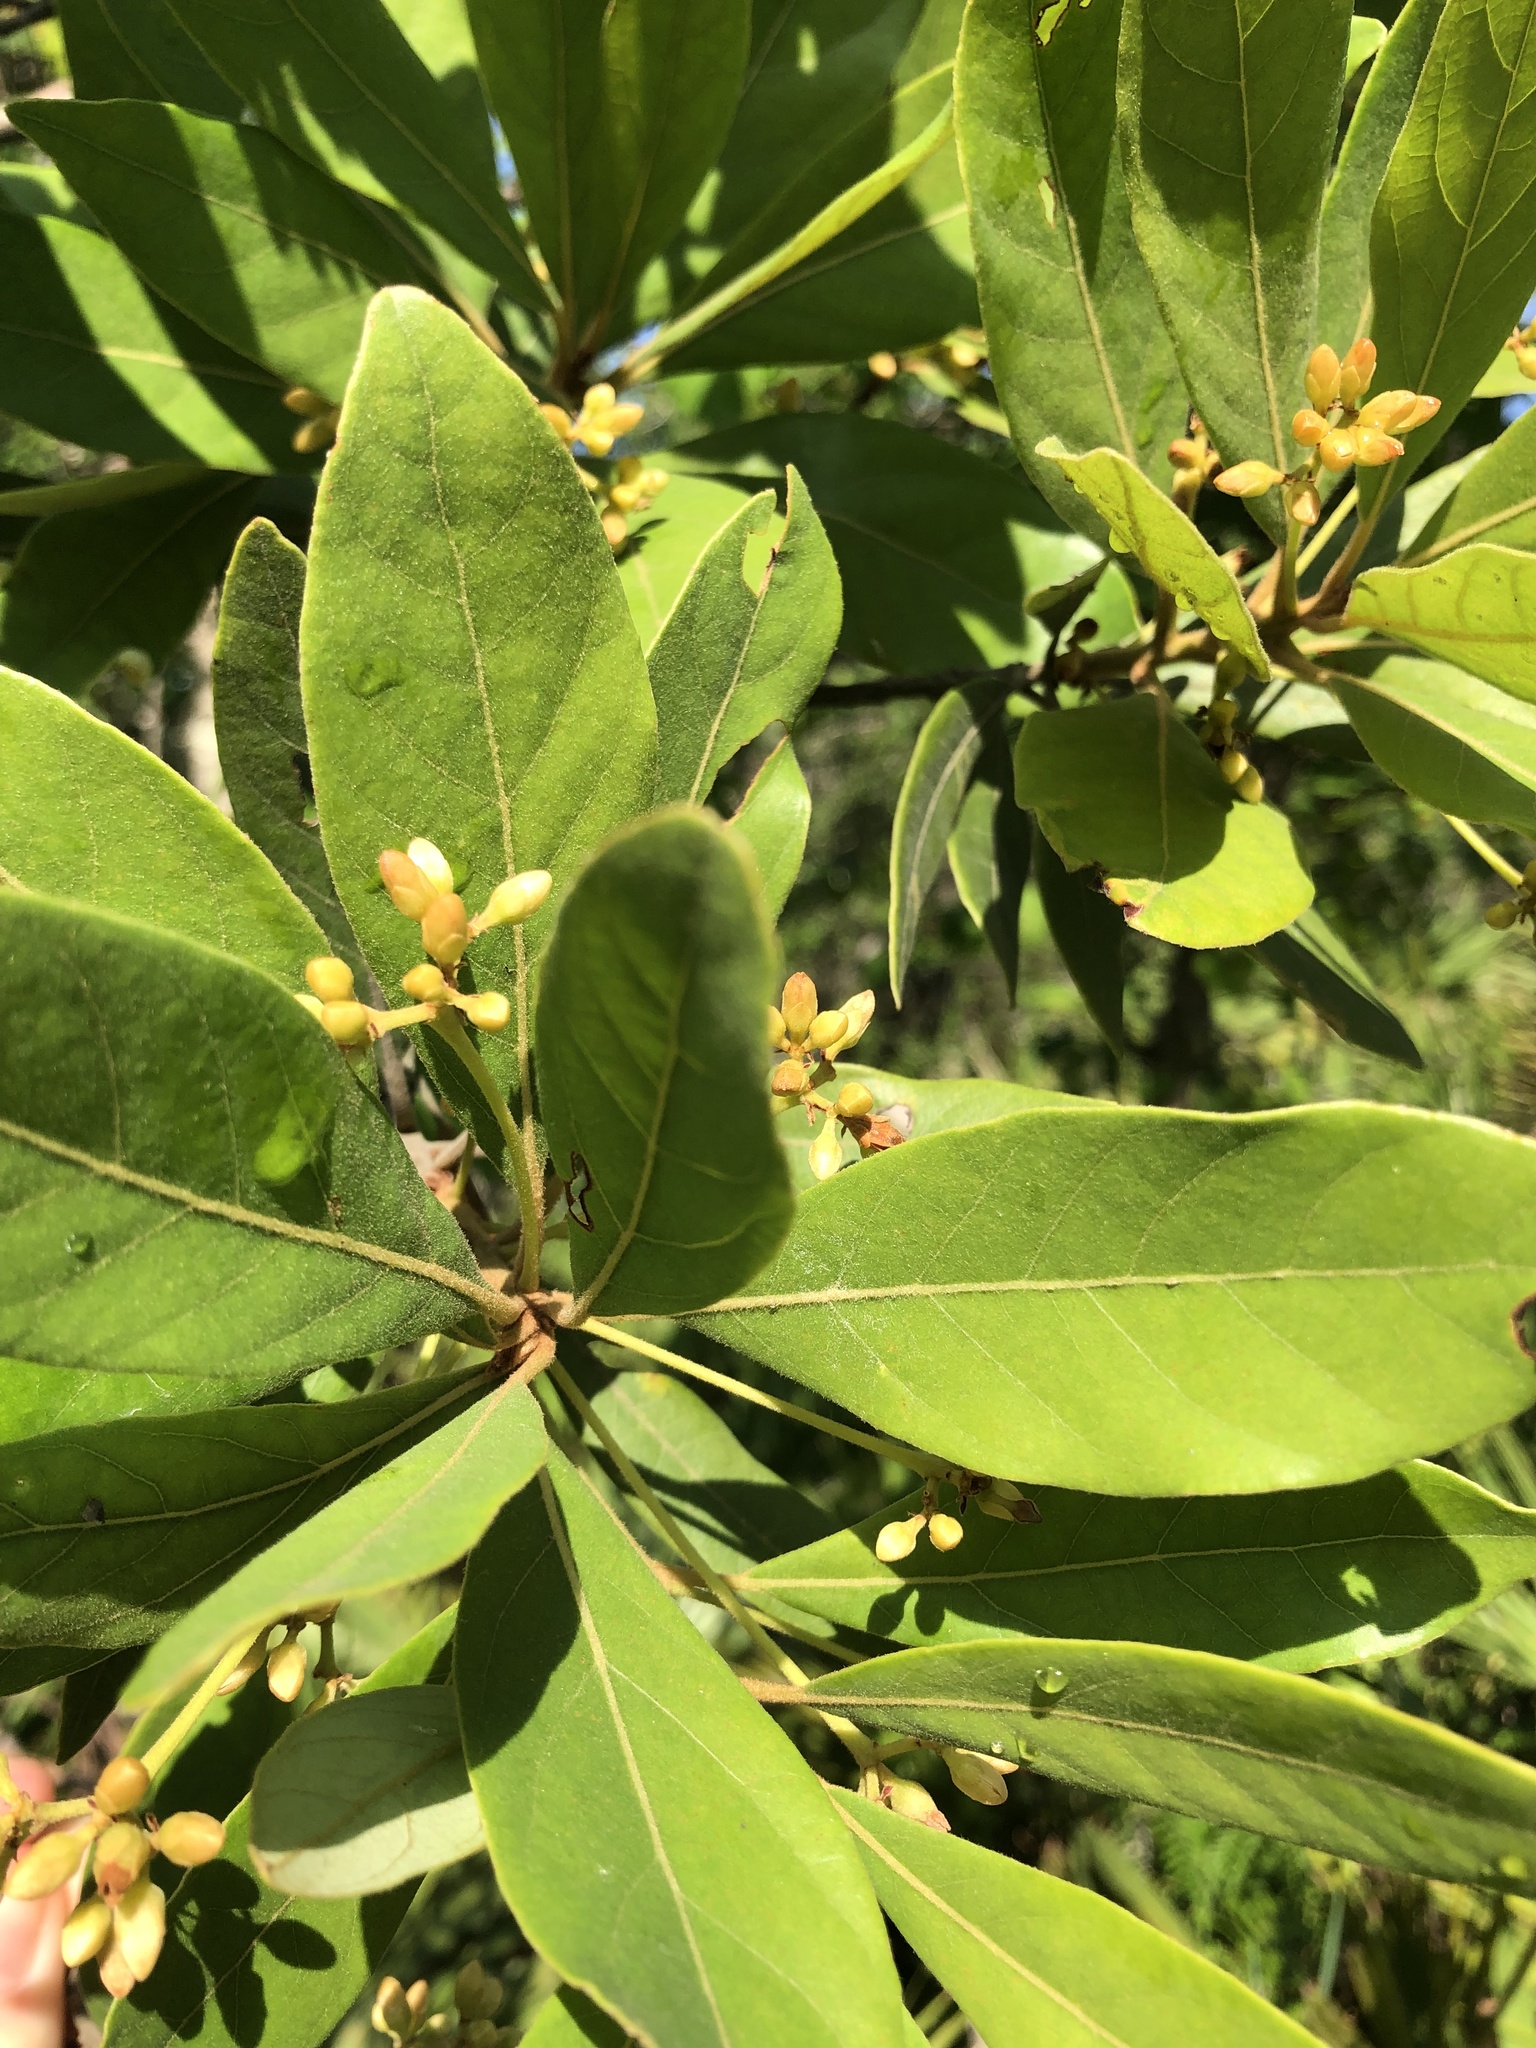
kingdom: Plantae
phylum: Tracheophyta
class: Magnoliopsida
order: Laurales
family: Lauraceae
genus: Persea
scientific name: Persea palustris
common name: Swampbay
